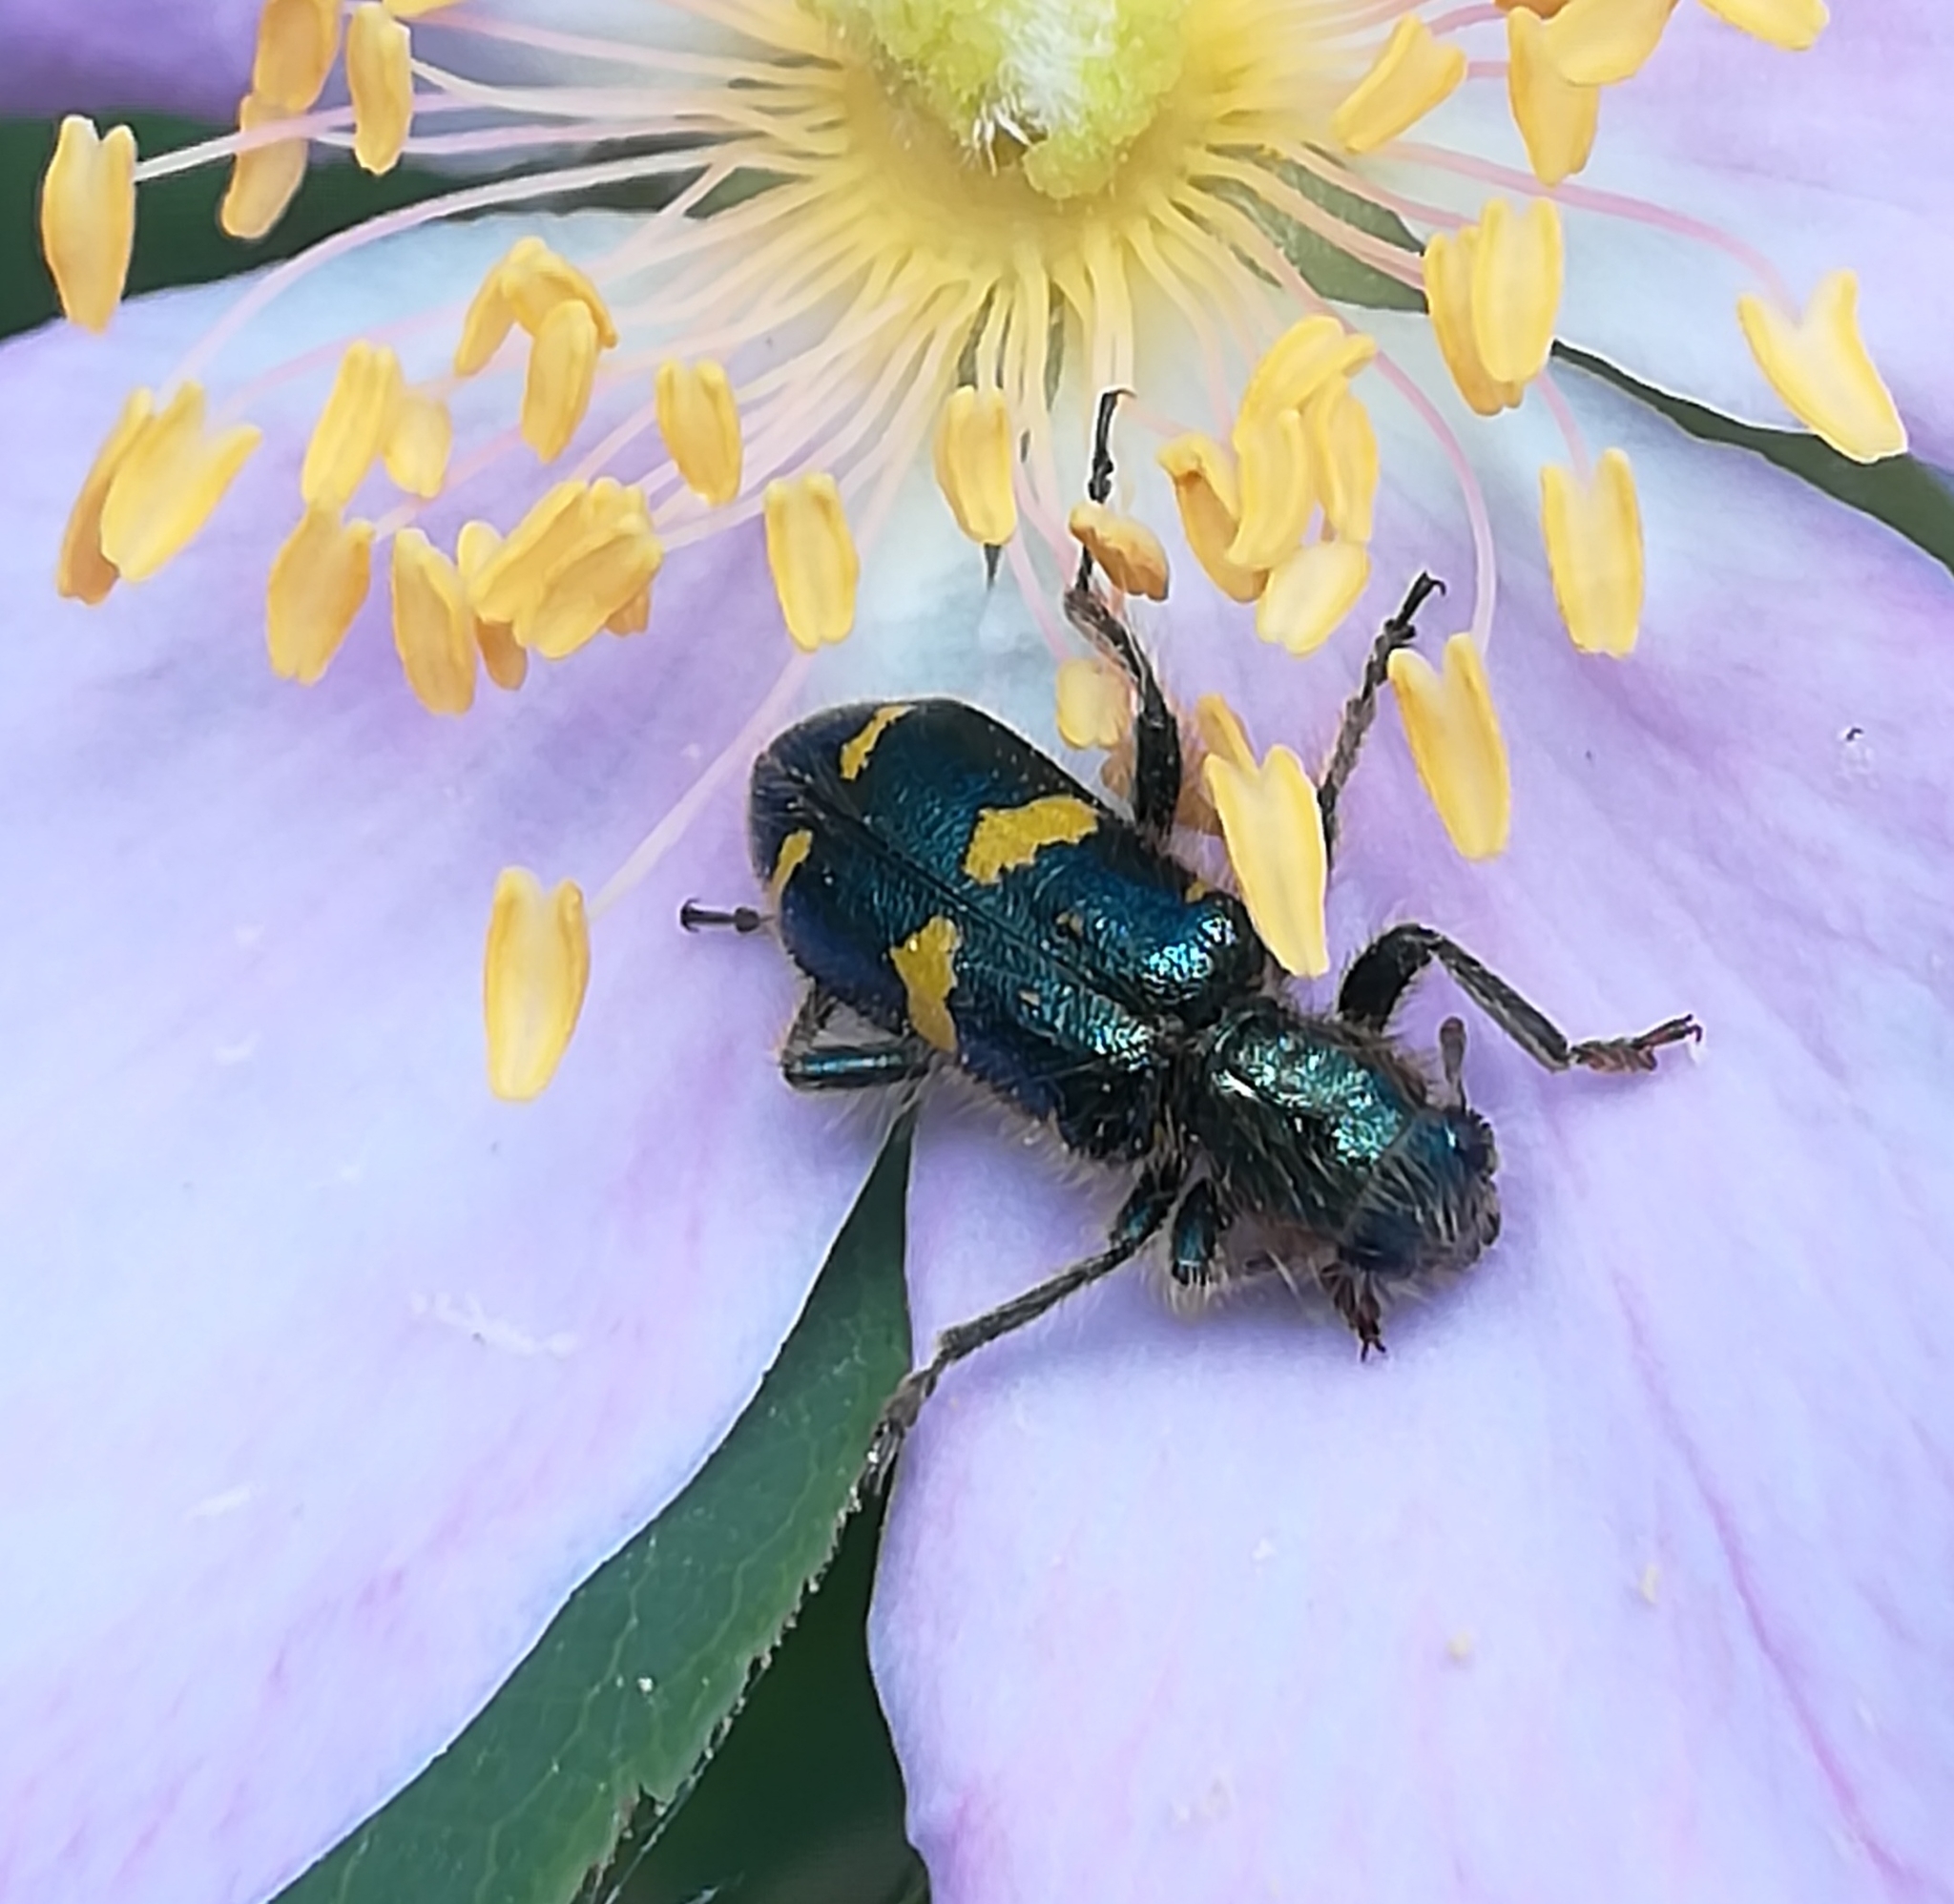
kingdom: Animalia
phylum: Arthropoda
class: Insecta
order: Coleoptera
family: Cleridae
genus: Trichodes
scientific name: Trichodes ornatus
